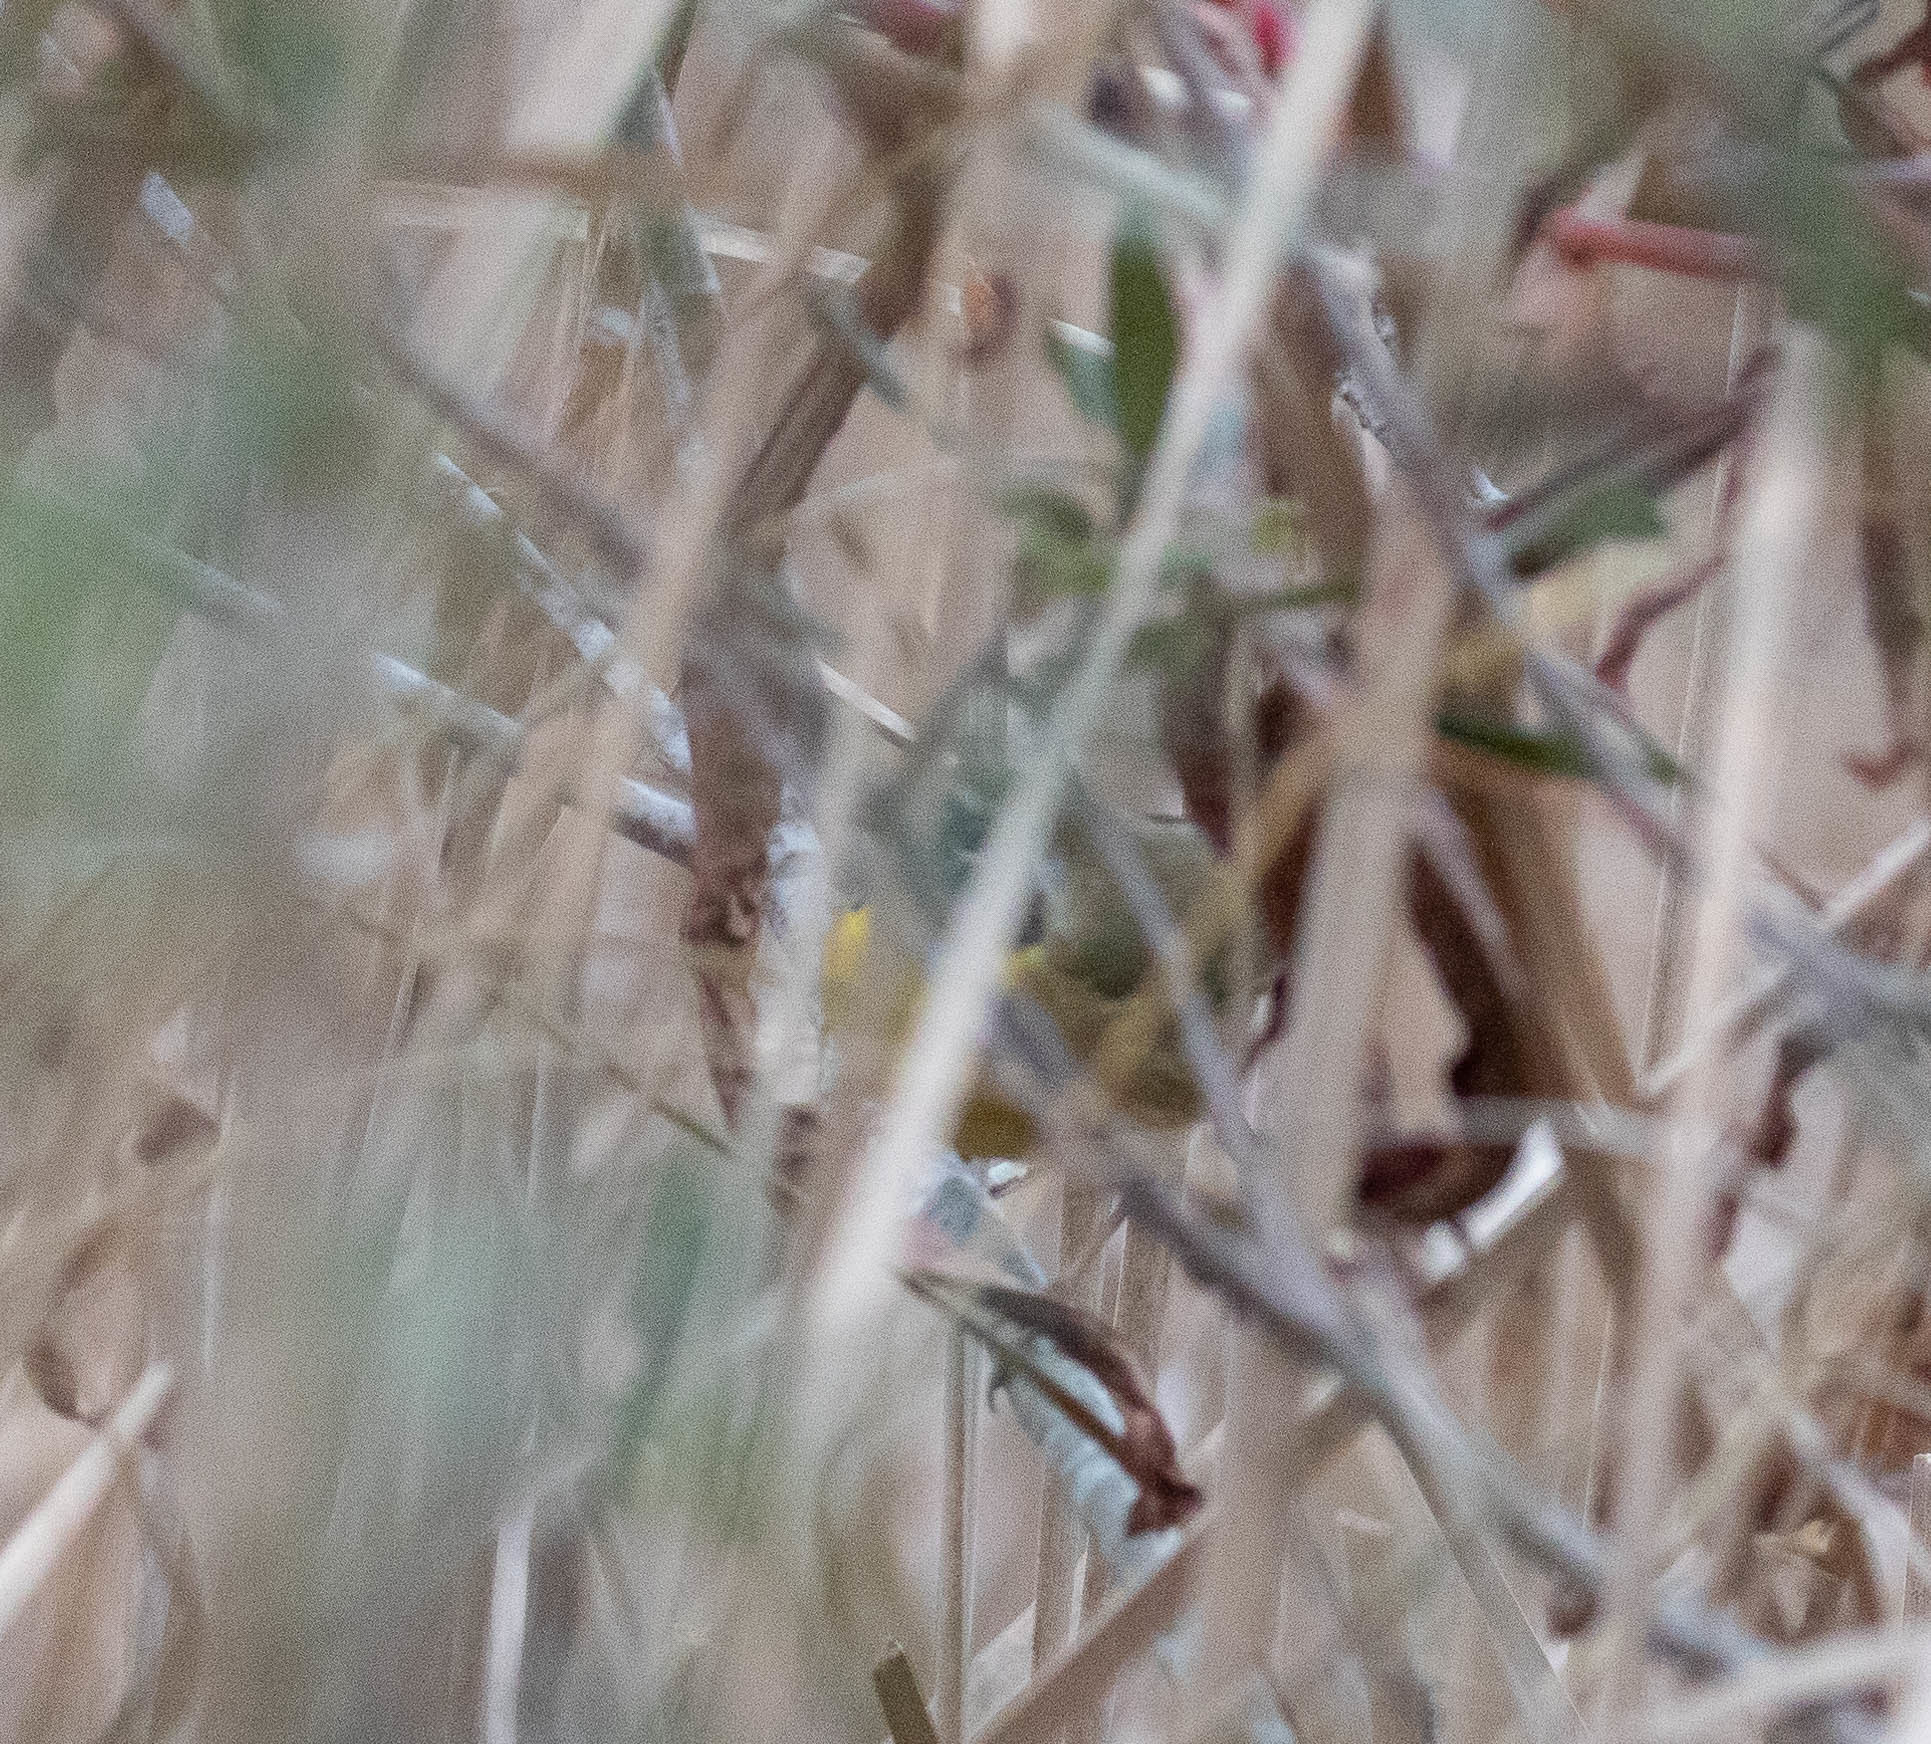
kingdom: Animalia
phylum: Chordata
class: Aves
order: Passeriformes
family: Parulidae
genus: Geothlypis
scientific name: Geothlypis trichas
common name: Common yellowthroat
